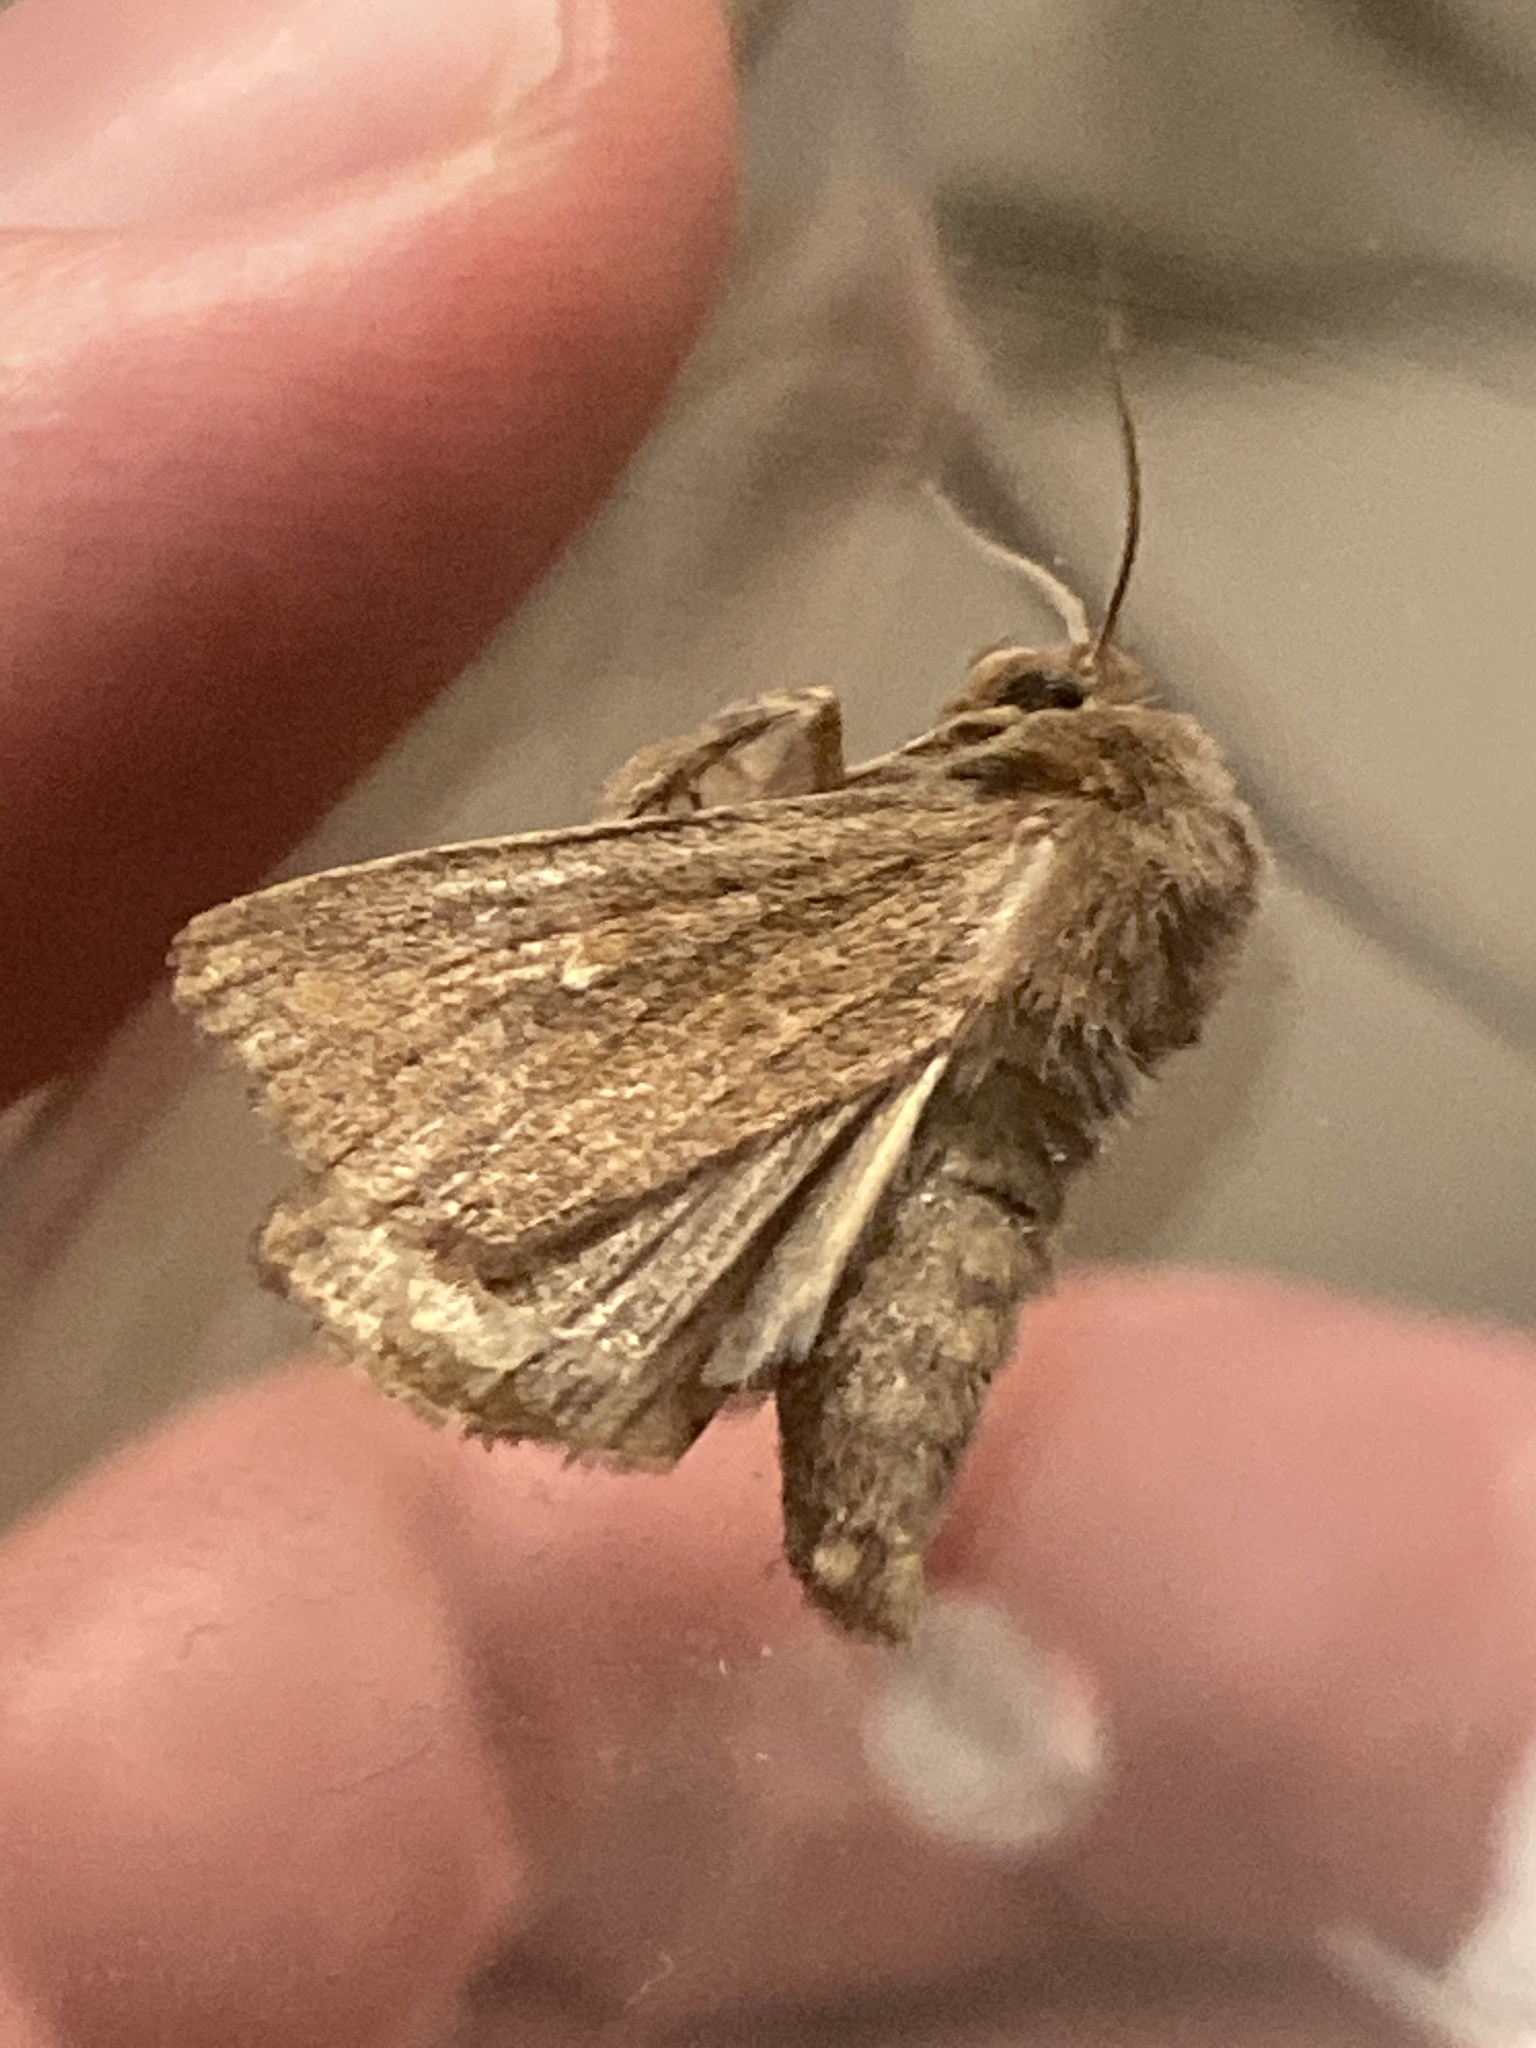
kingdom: Animalia
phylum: Arthropoda
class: Insecta
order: Lepidoptera
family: Noctuidae
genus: Mythimna
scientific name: Mythimna albipuncta
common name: White-point
